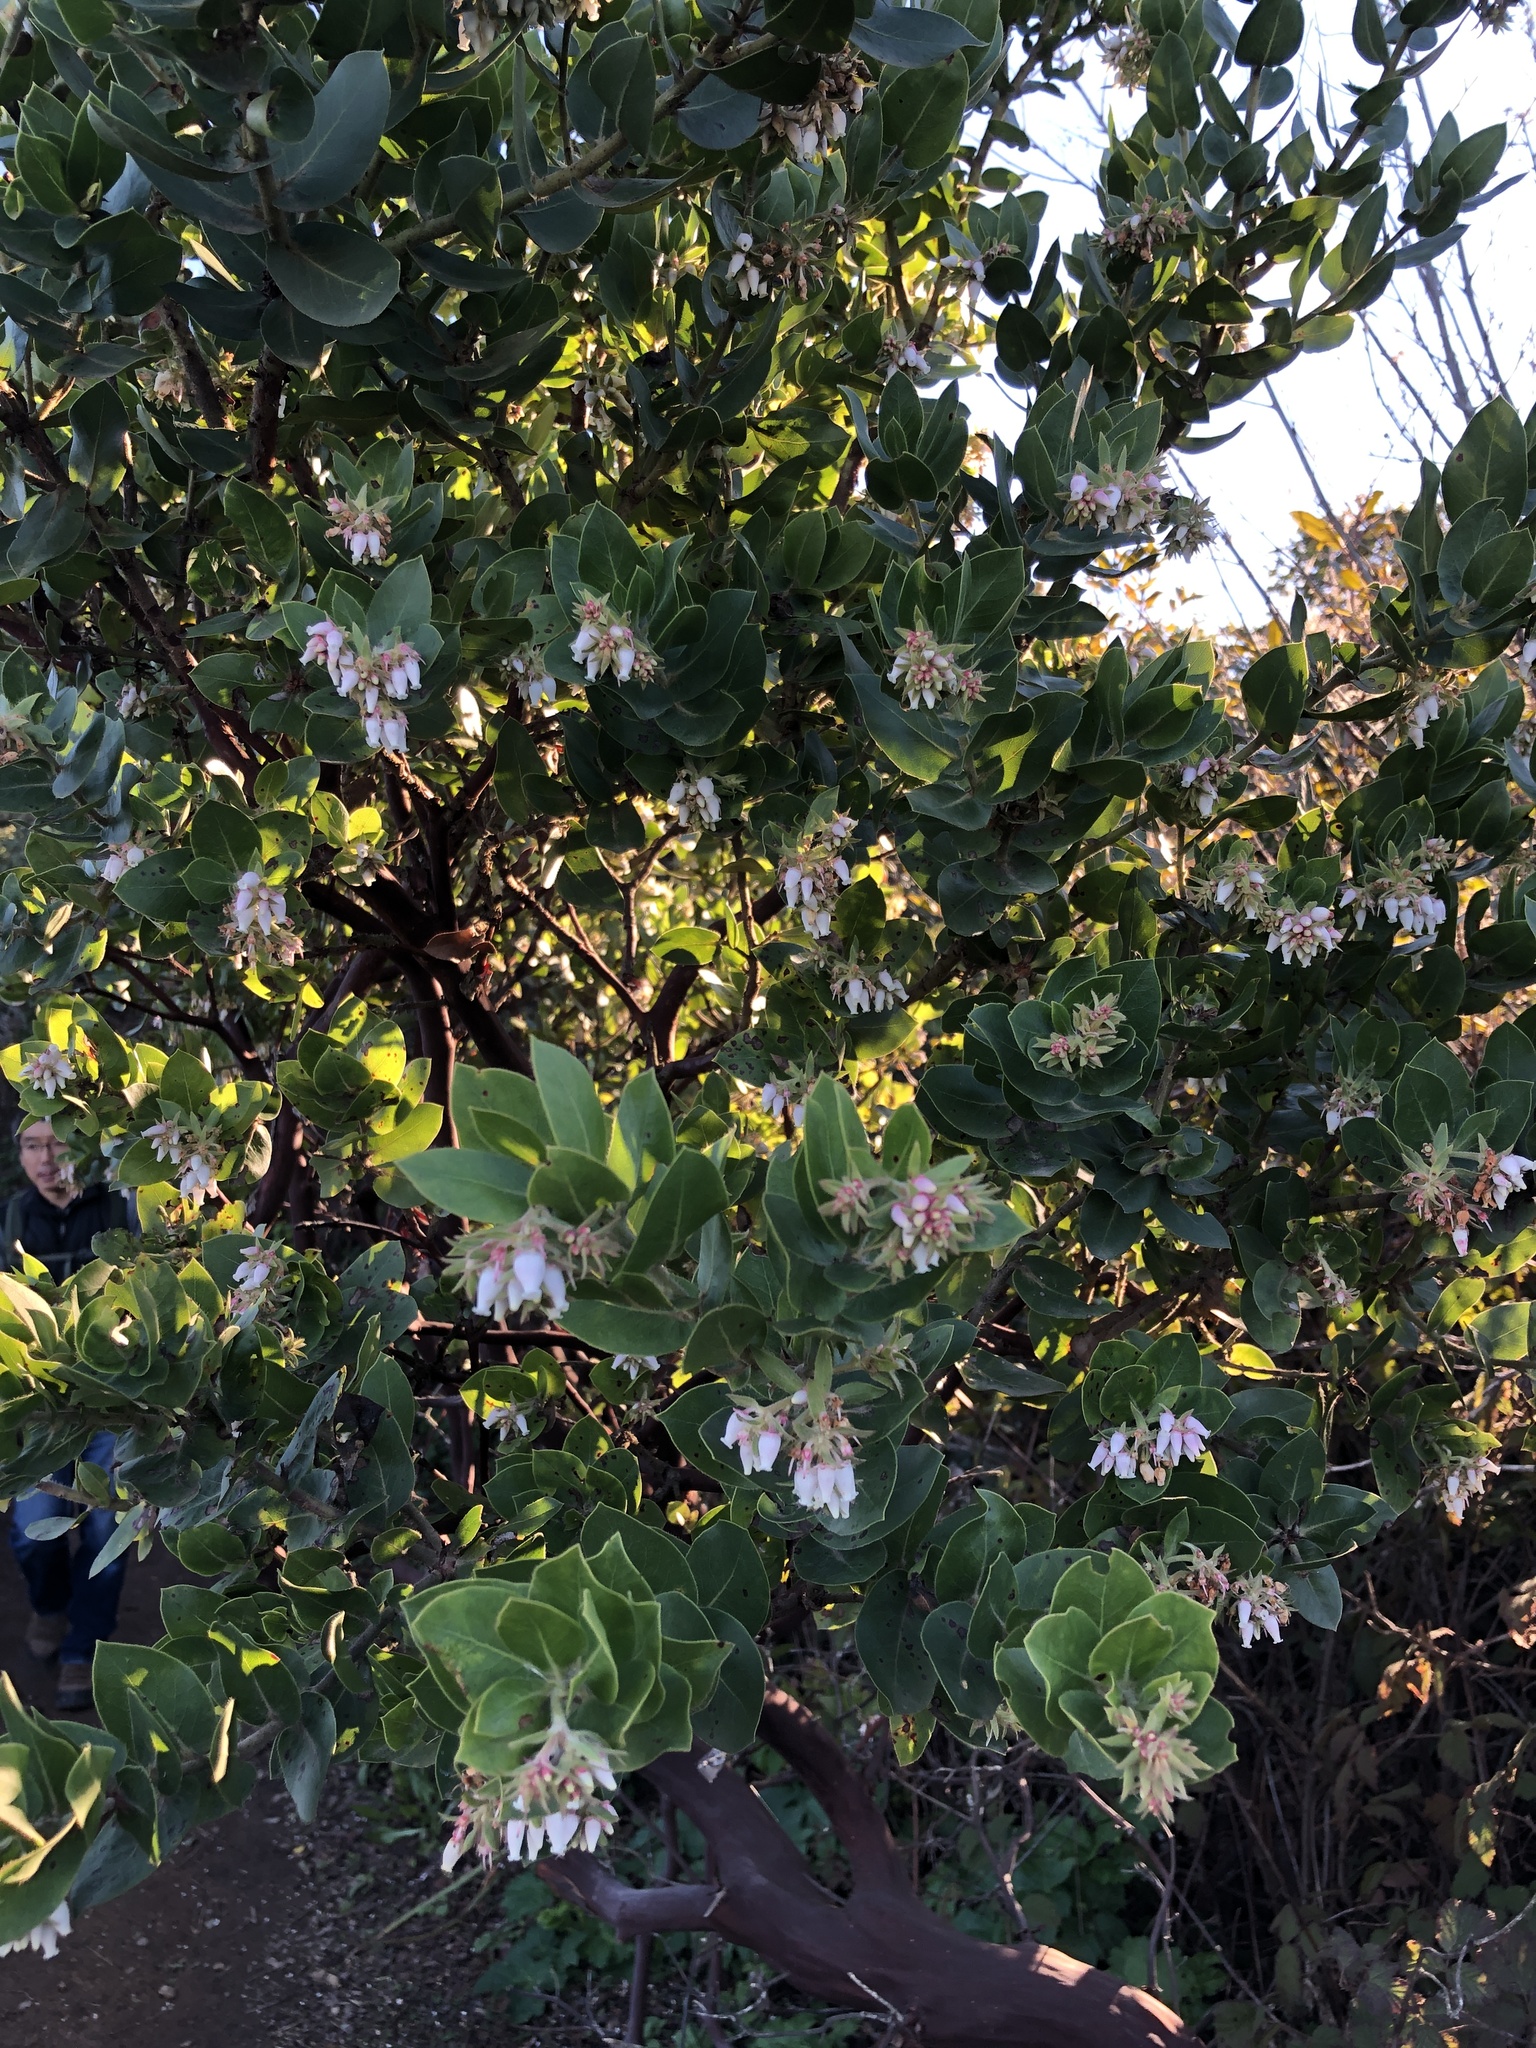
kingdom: Plantae
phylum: Tracheophyta
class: Magnoliopsida
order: Ericales
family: Ericaceae
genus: Arctostaphylos
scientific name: Arctostaphylos montaraensis
